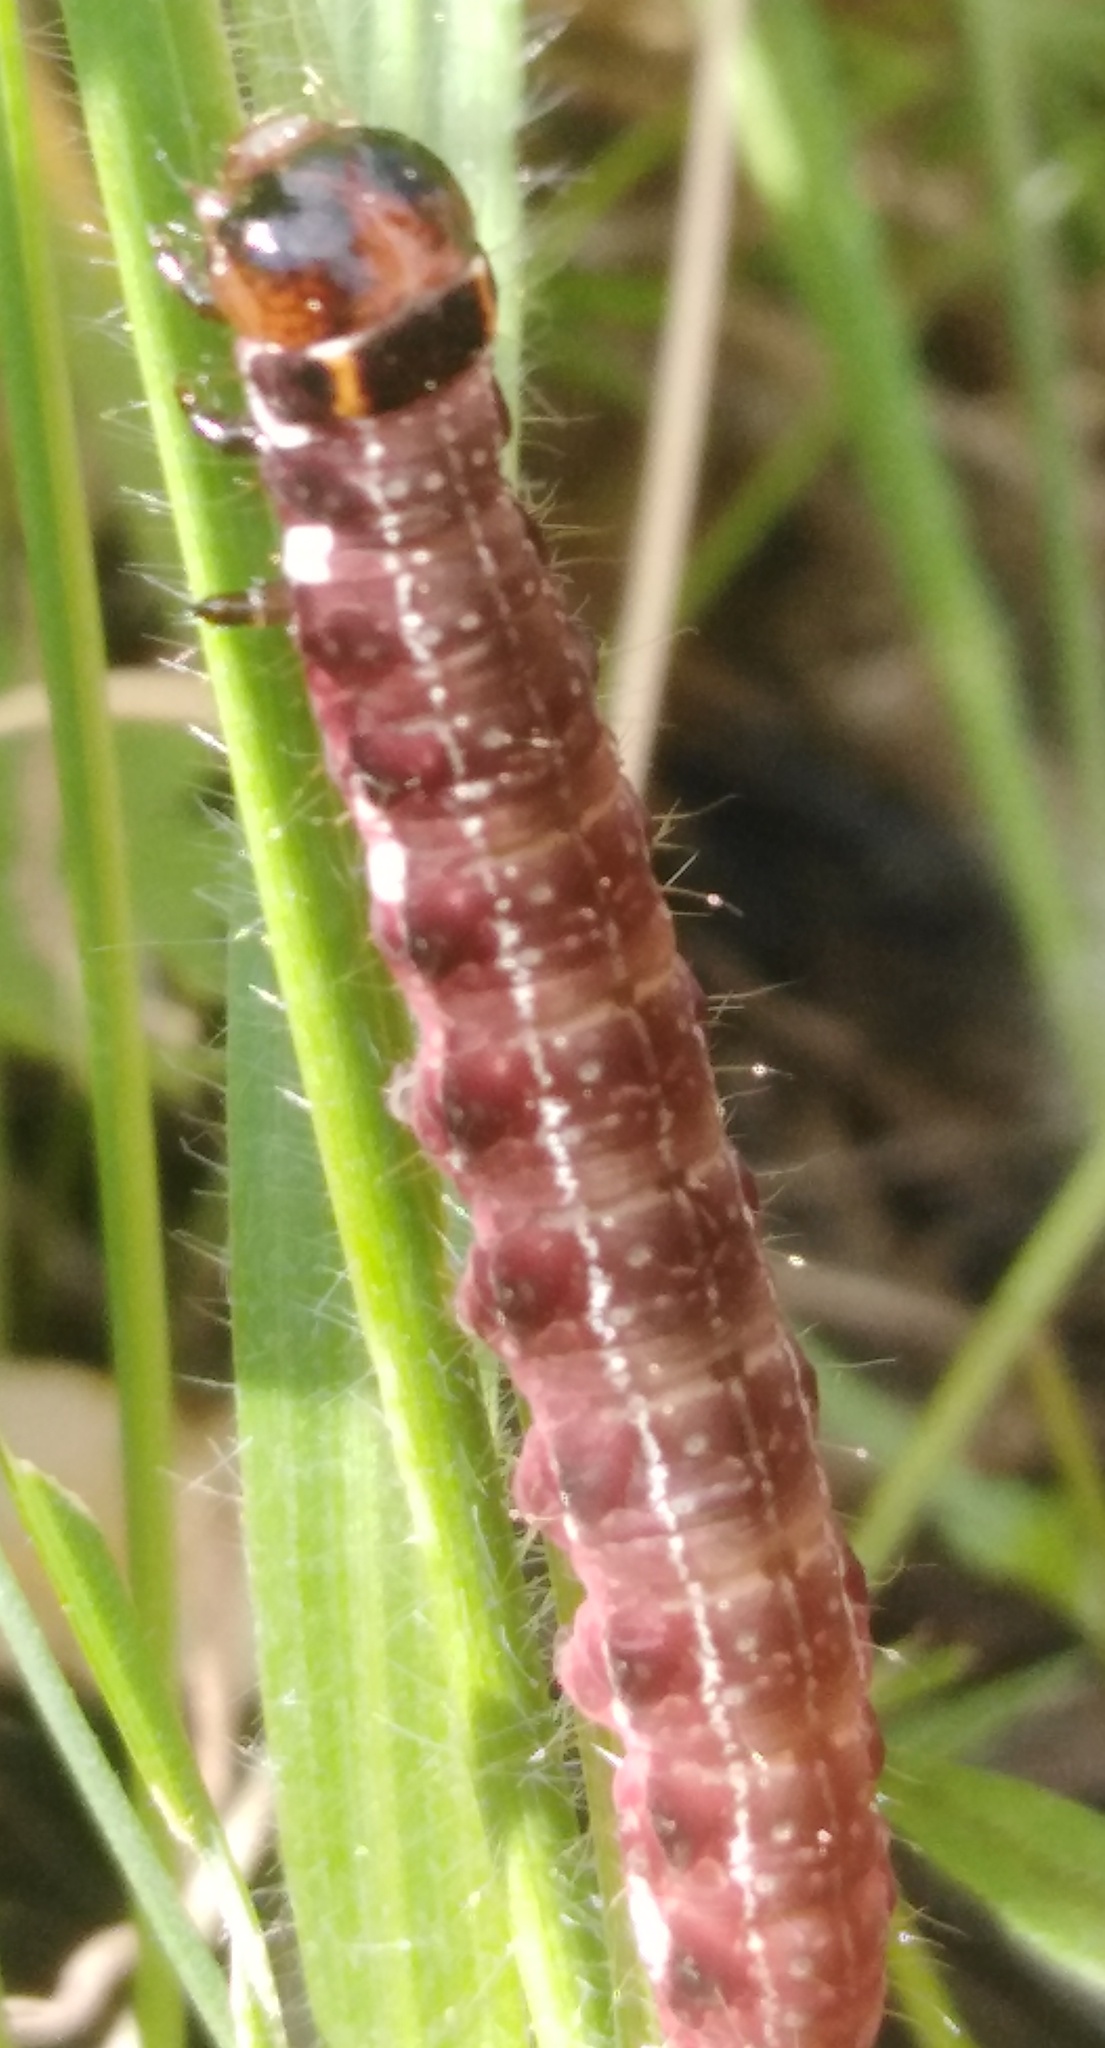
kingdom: Animalia
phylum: Arthropoda
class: Insecta
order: Lepidoptera
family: Noctuidae
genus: Eupsilia
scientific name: Eupsilia transversa
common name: Satellite
